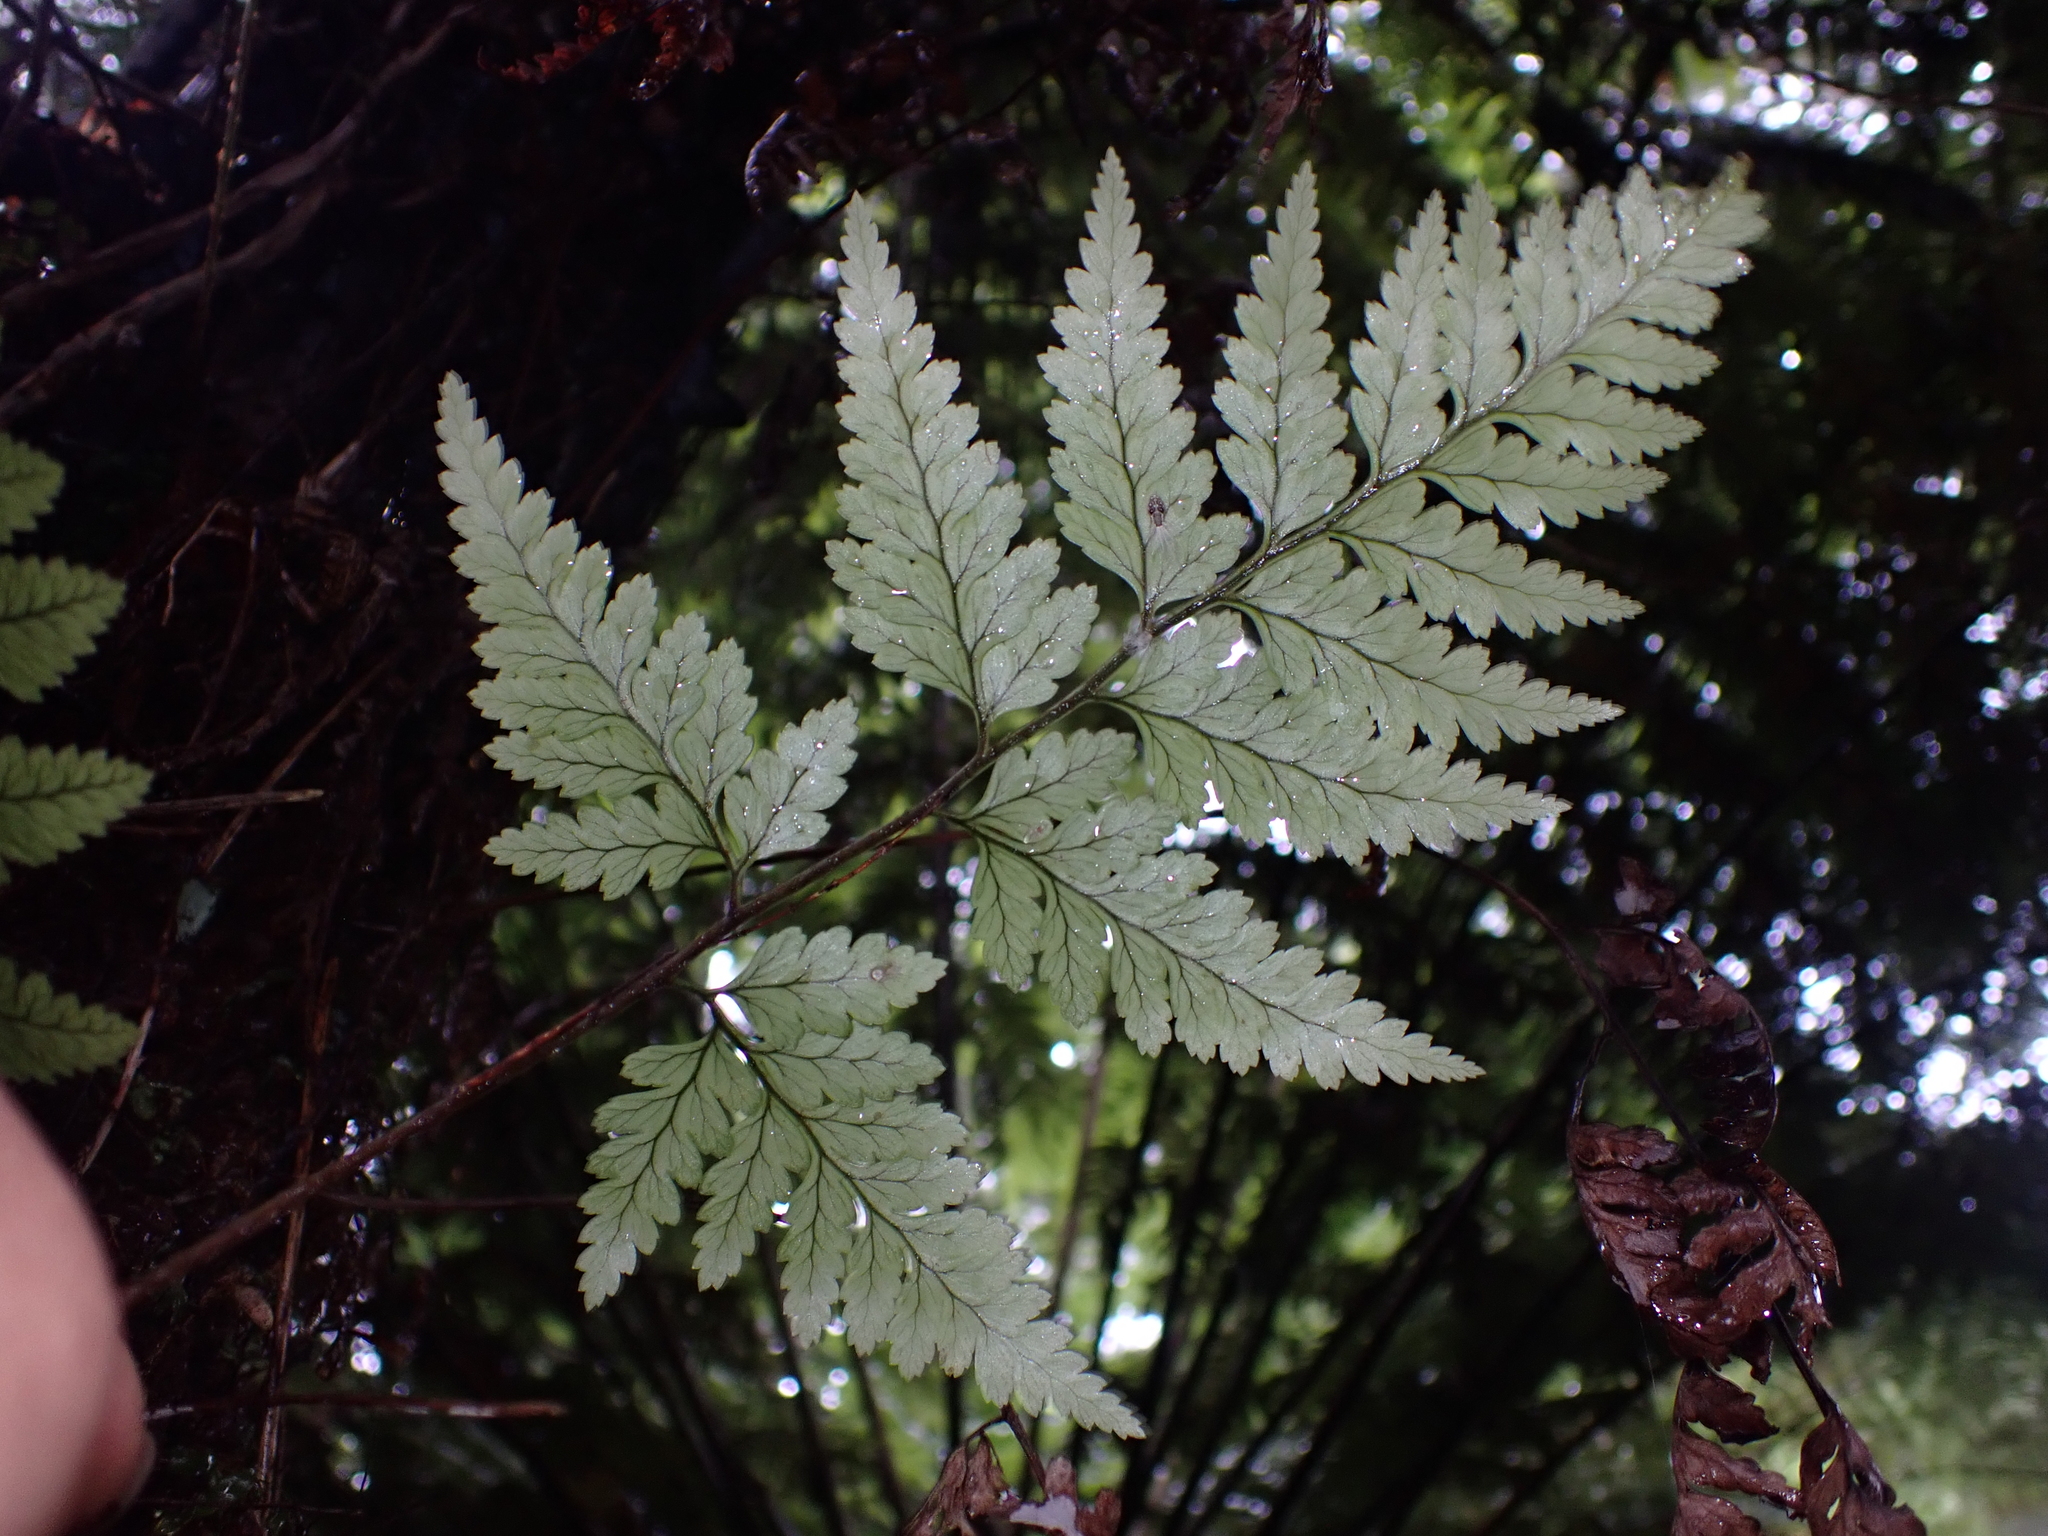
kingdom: Plantae
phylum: Tracheophyta
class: Polypodiopsida
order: Polypodiales
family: Dryopteridaceae
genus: Rumohra
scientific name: Rumohra adiantiformis
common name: Leather fern
